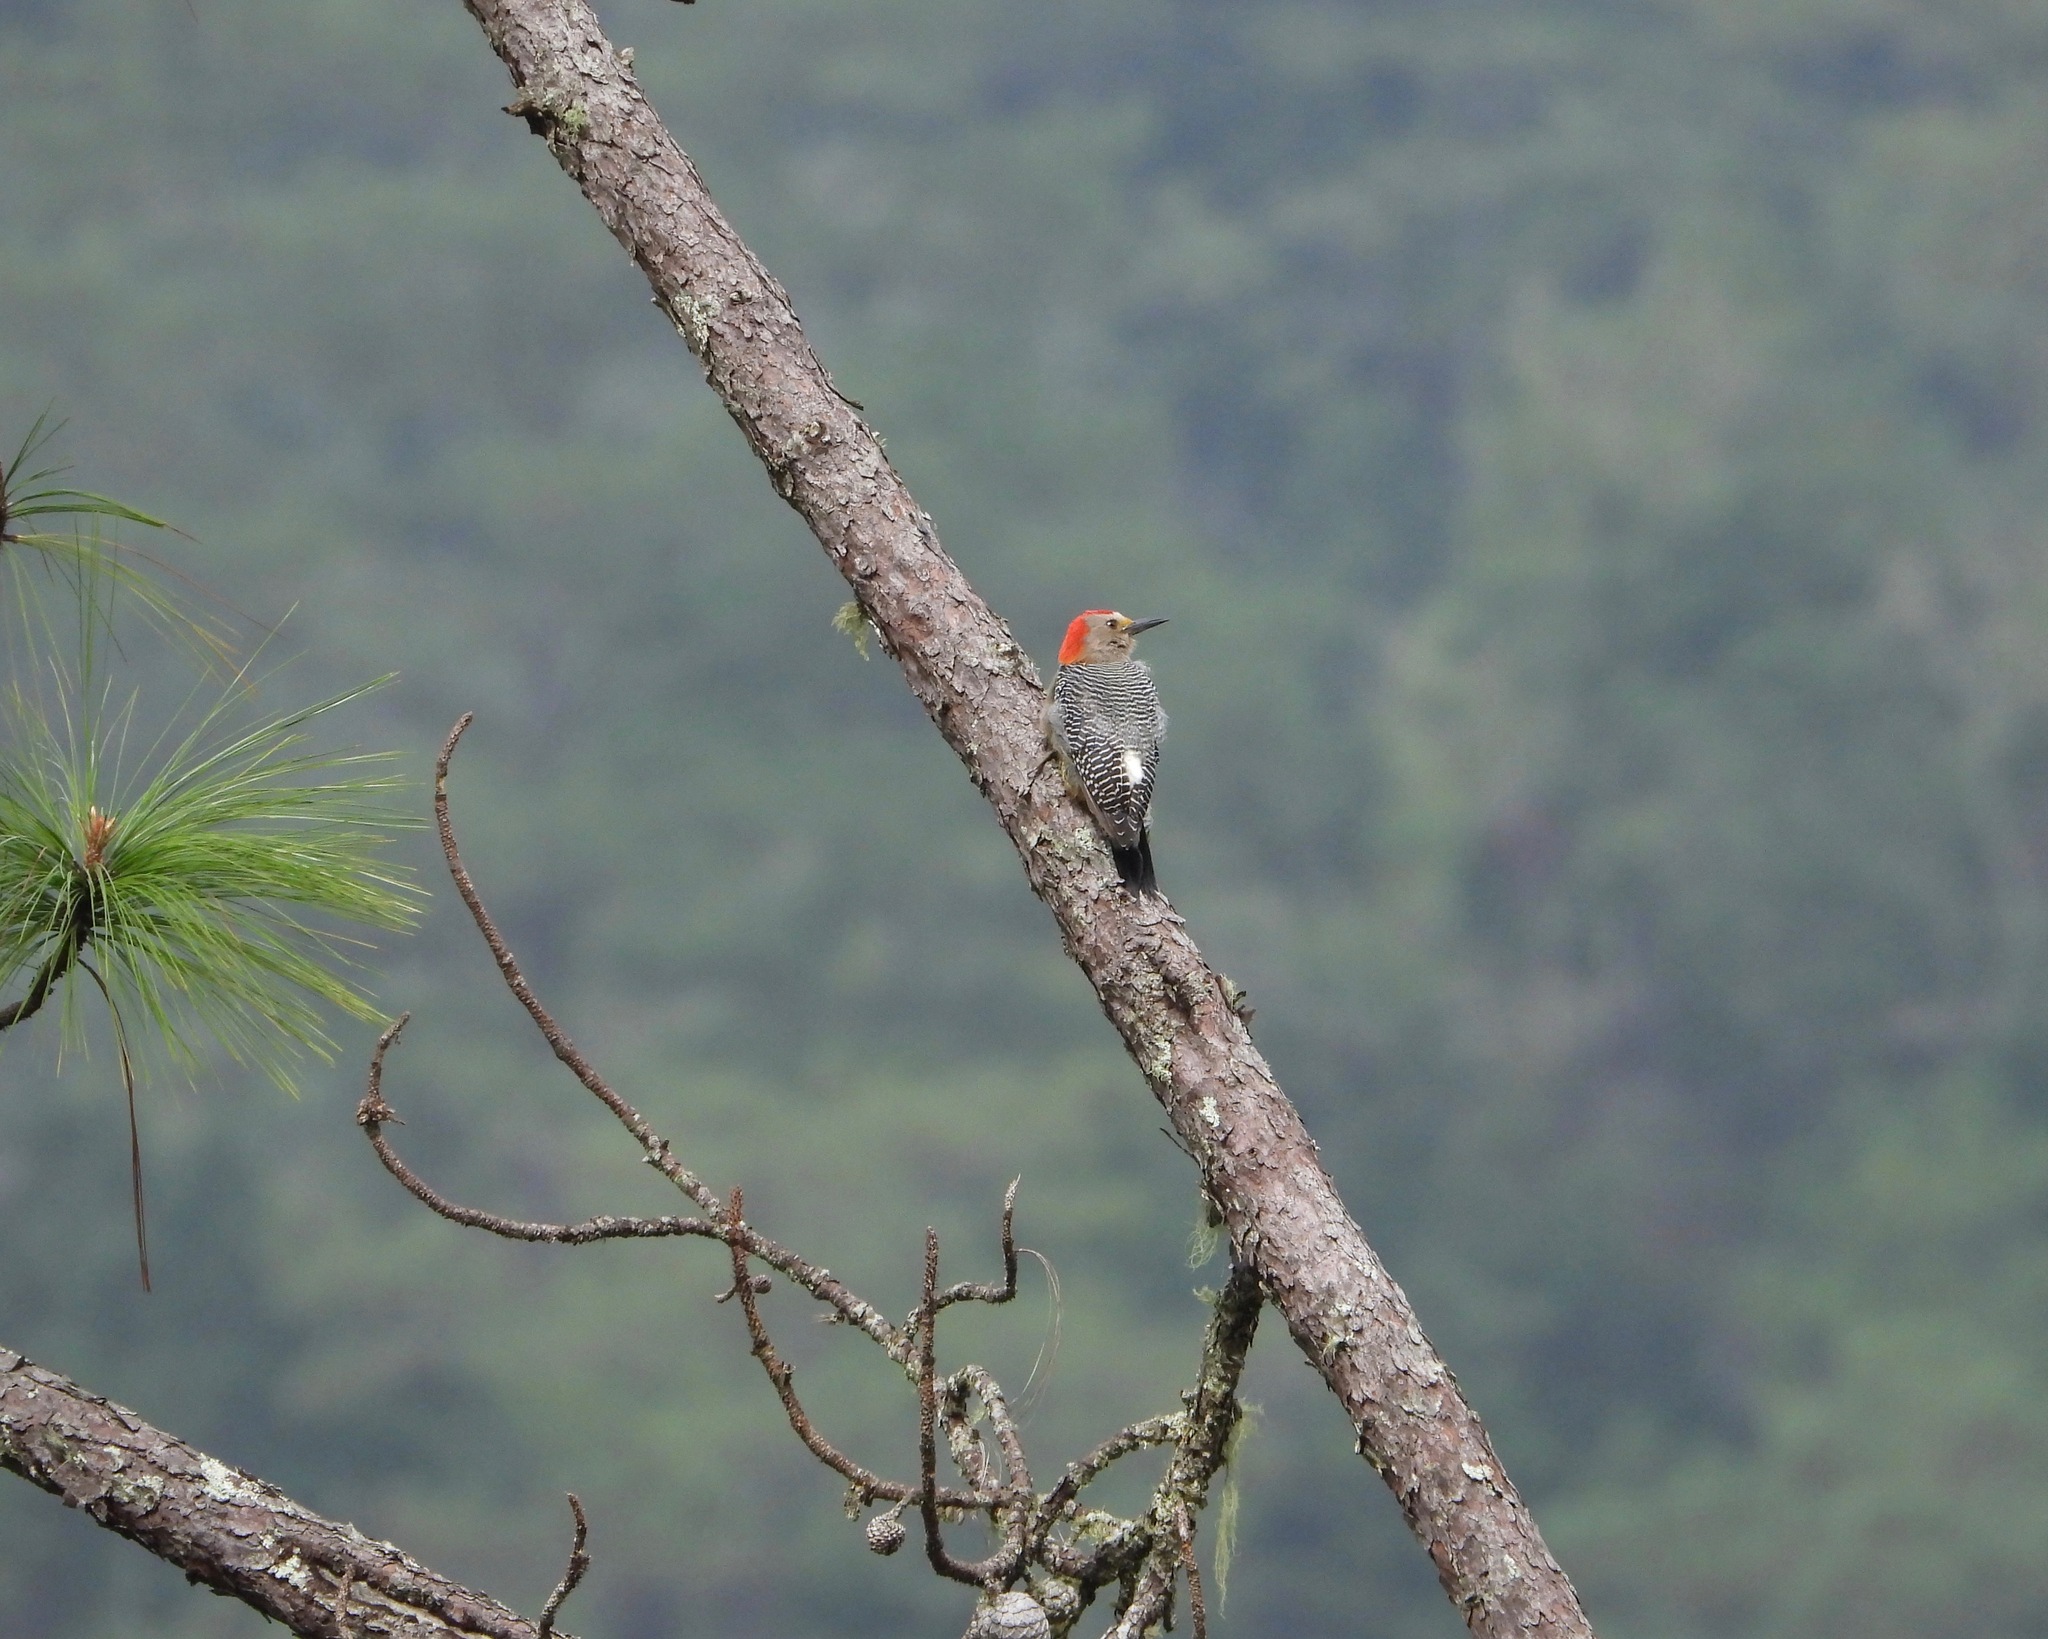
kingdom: Animalia
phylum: Chordata
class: Aves
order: Piciformes
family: Picidae
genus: Melanerpes
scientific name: Melanerpes aurifrons
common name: Golden-fronted woodpecker
